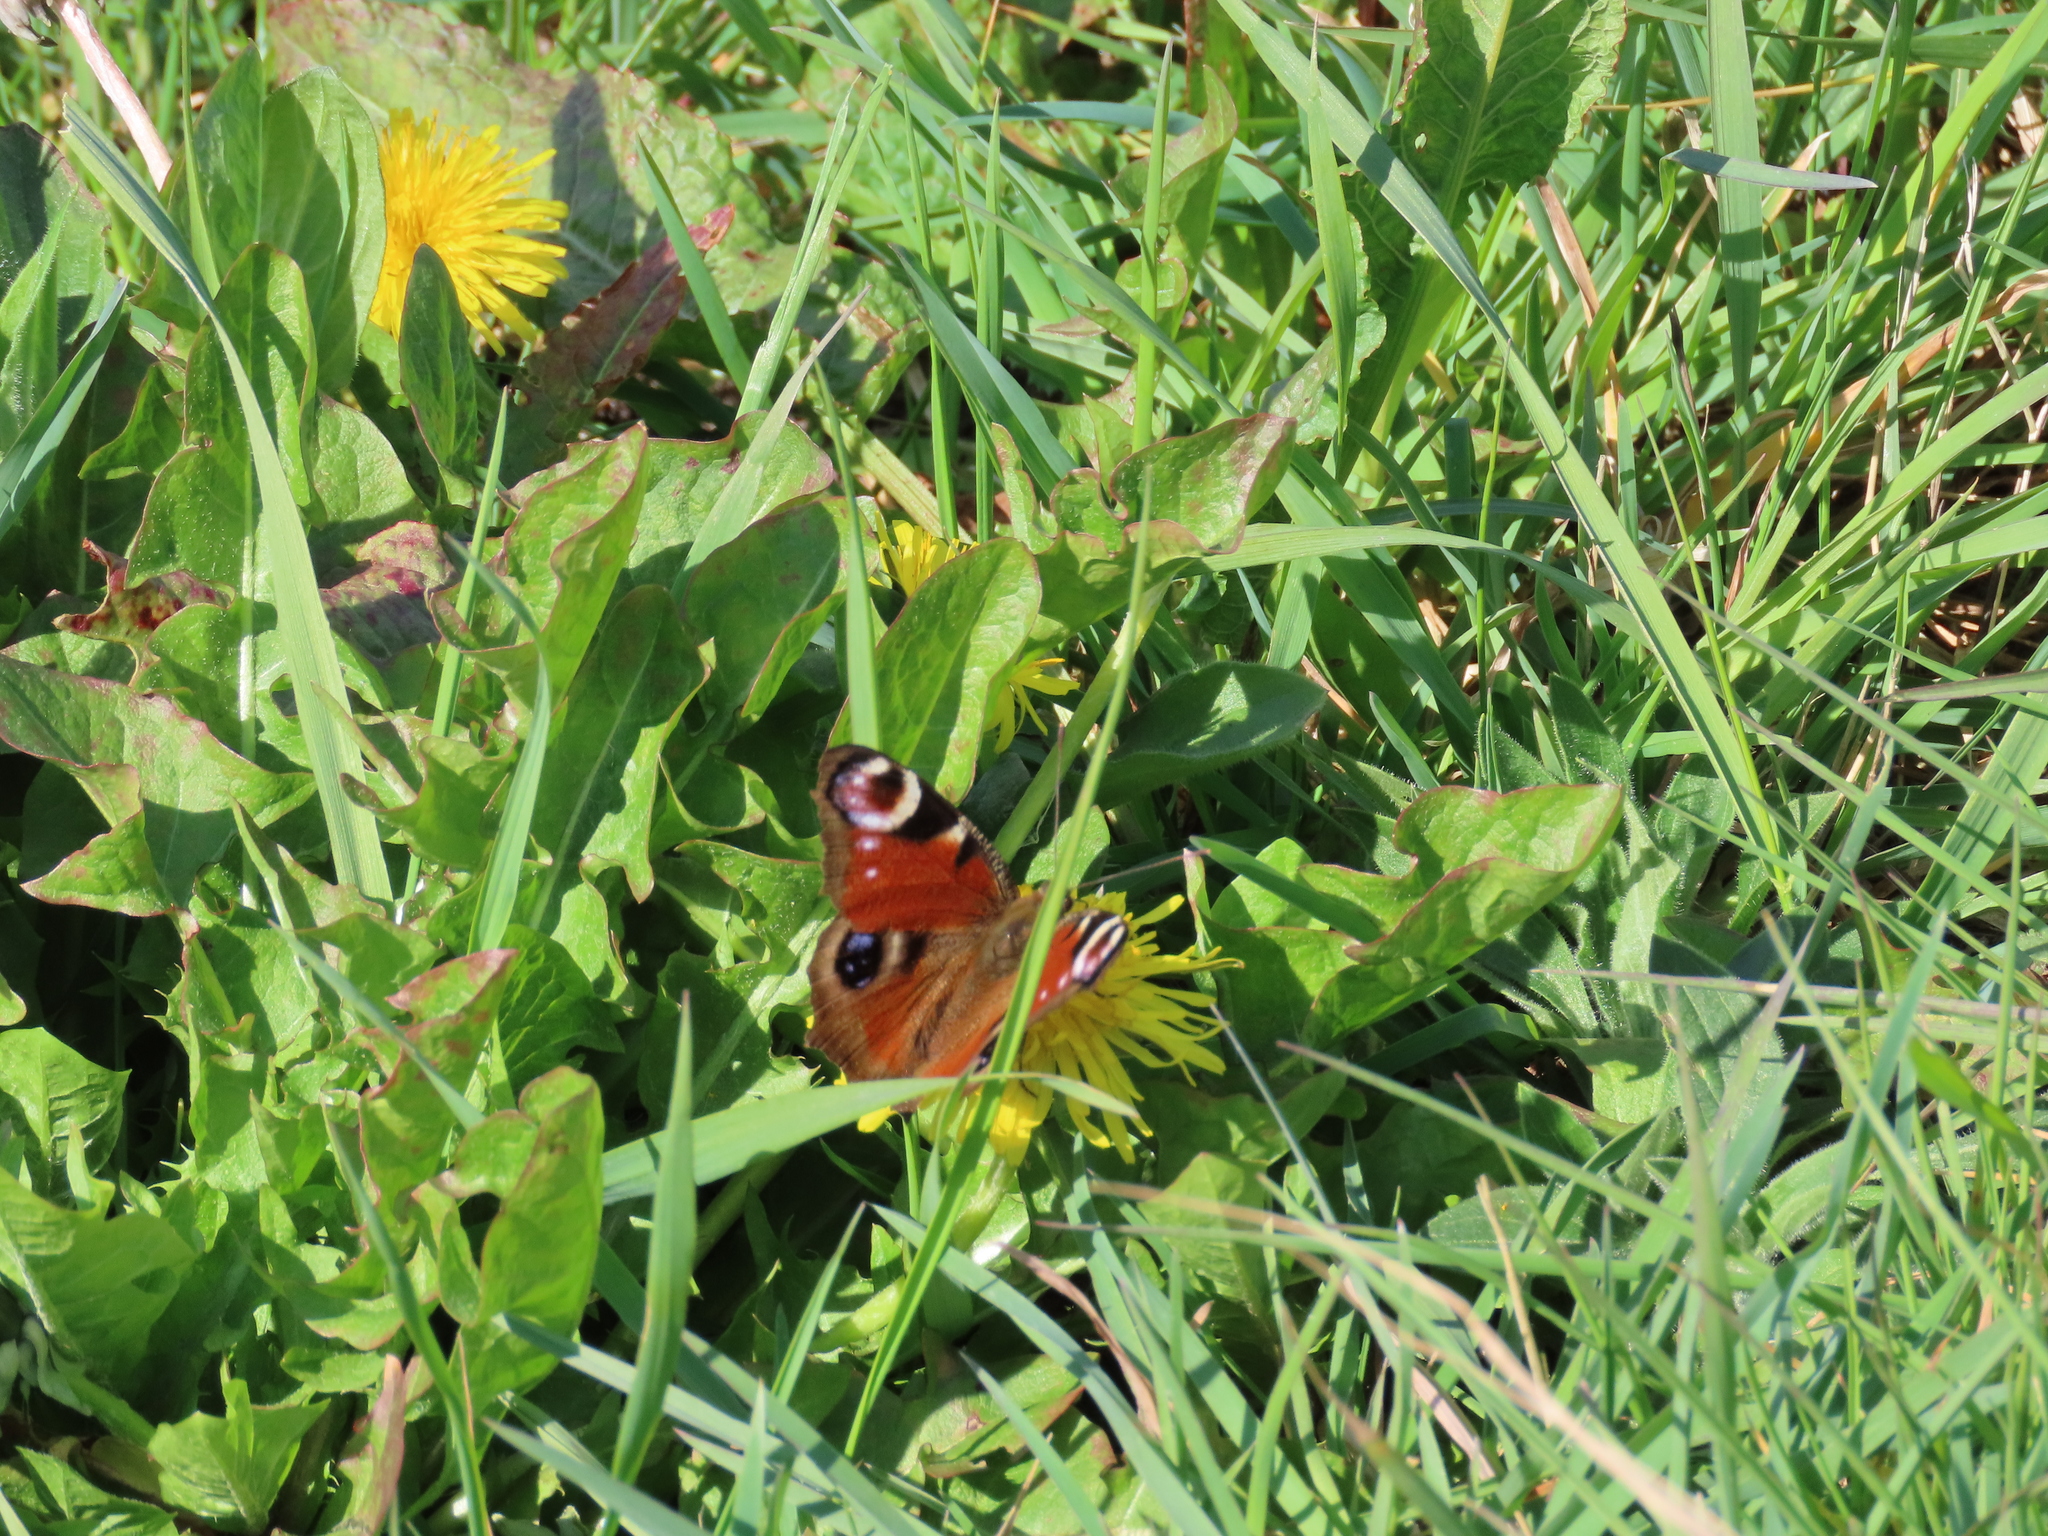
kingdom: Animalia
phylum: Arthropoda
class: Insecta
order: Lepidoptera
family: Nymphalidae
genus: Aglais
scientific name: Aglais io
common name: Peacock
